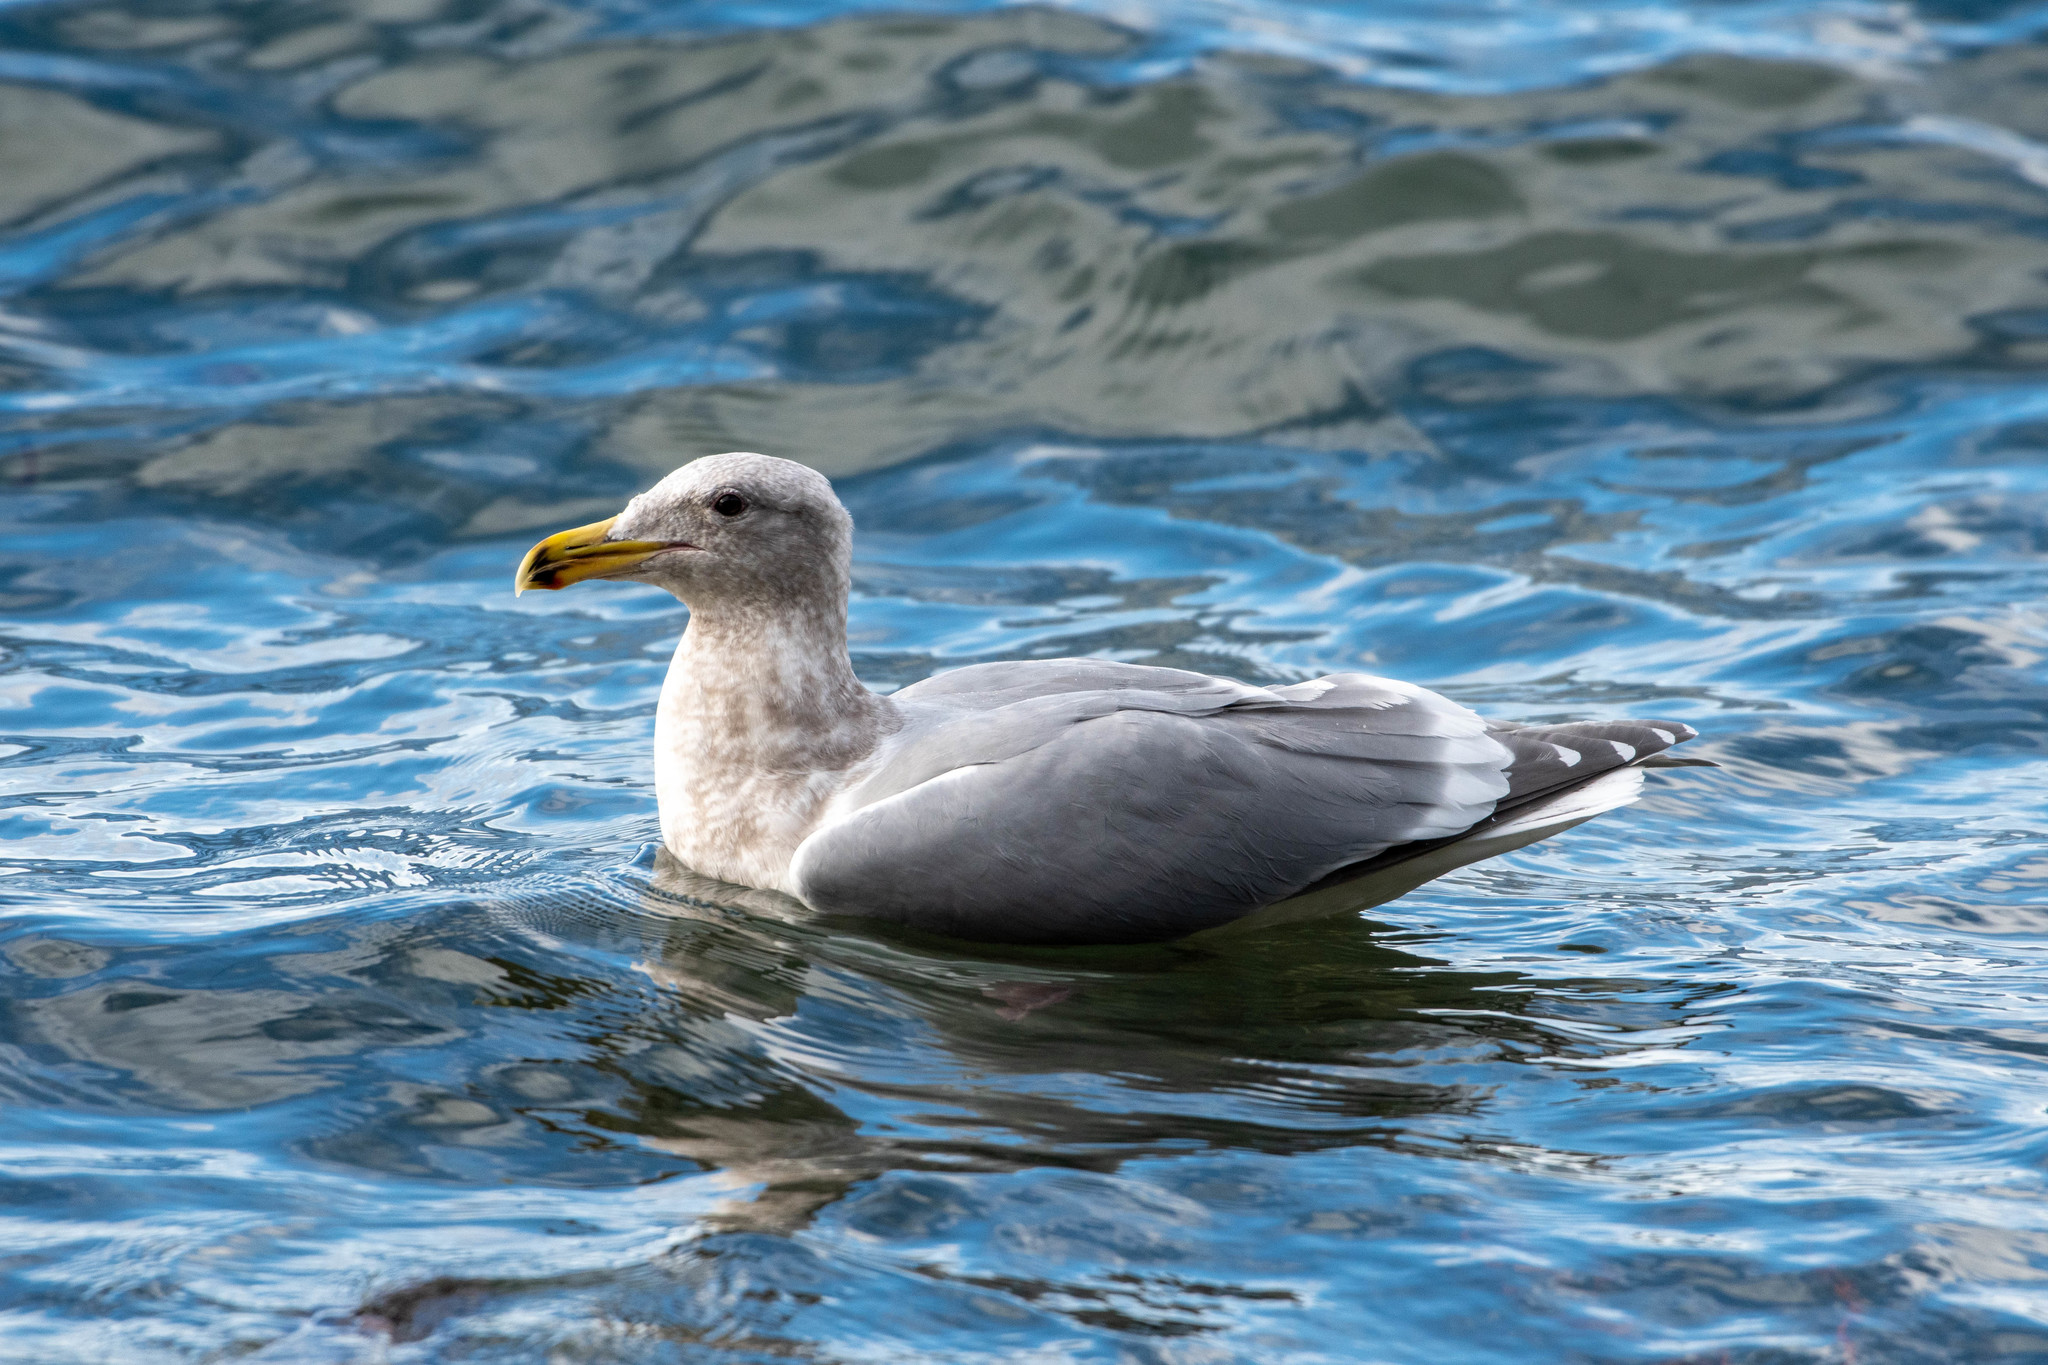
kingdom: Animalia
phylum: Chordata
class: Aves
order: Charadriiformes
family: Laridae
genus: Larus
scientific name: Larus
